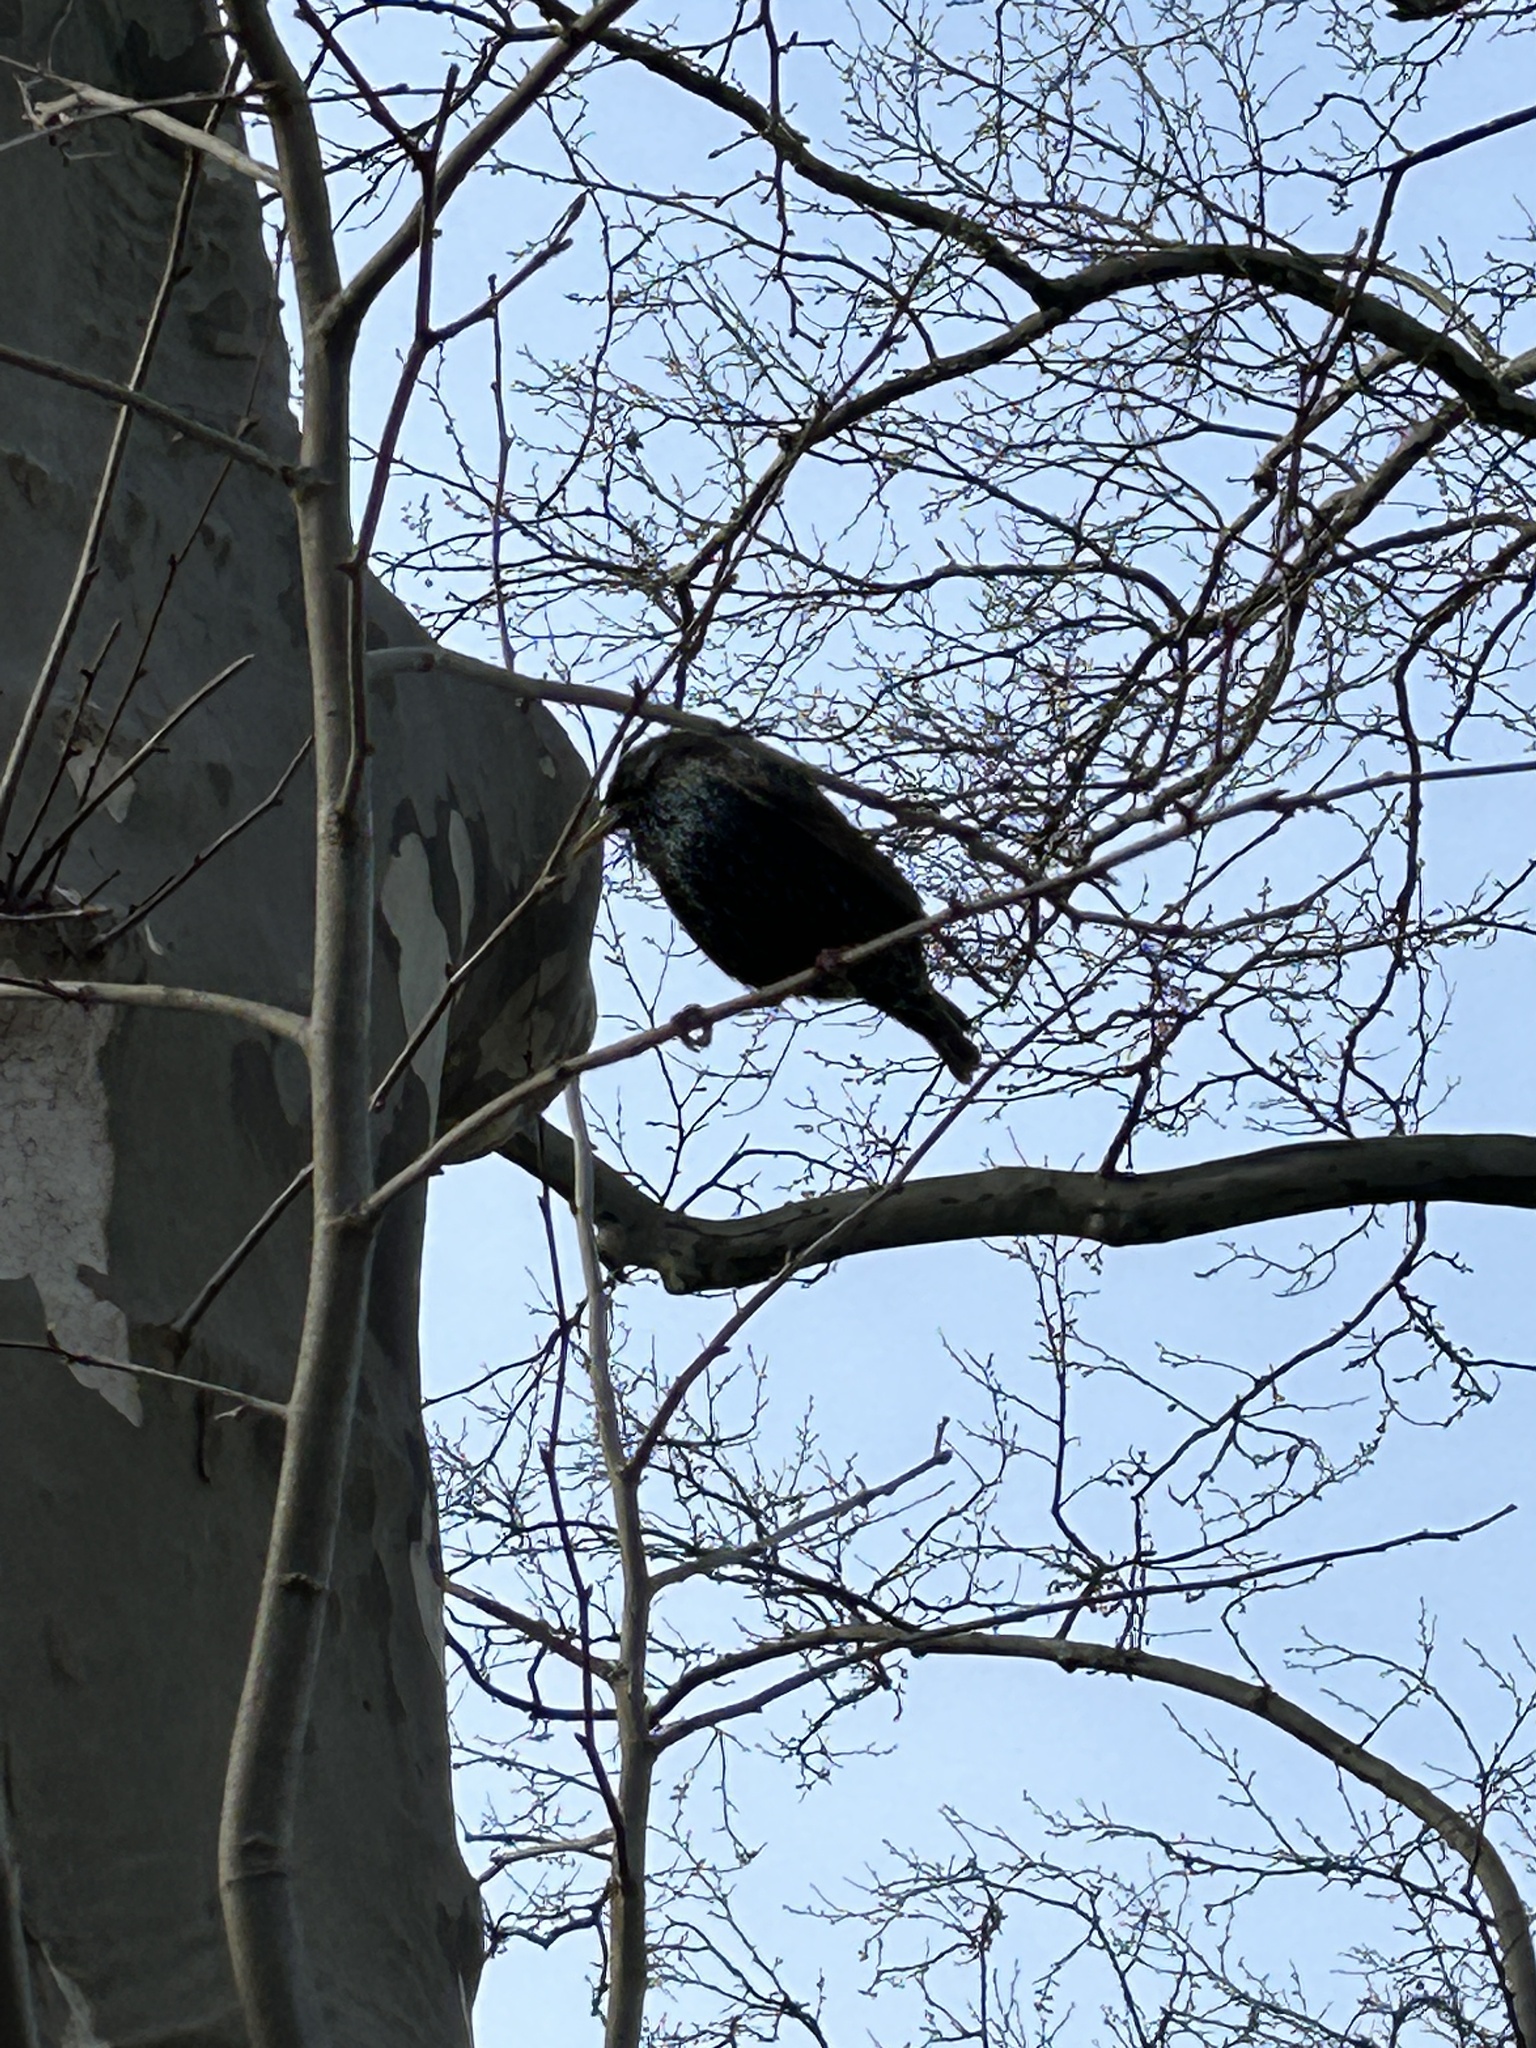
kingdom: Animalia
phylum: Chordata
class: Aves
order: Passeriformes
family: Sturnidae
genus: Sturnus
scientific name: Sturnus vulgaris
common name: Common starling
